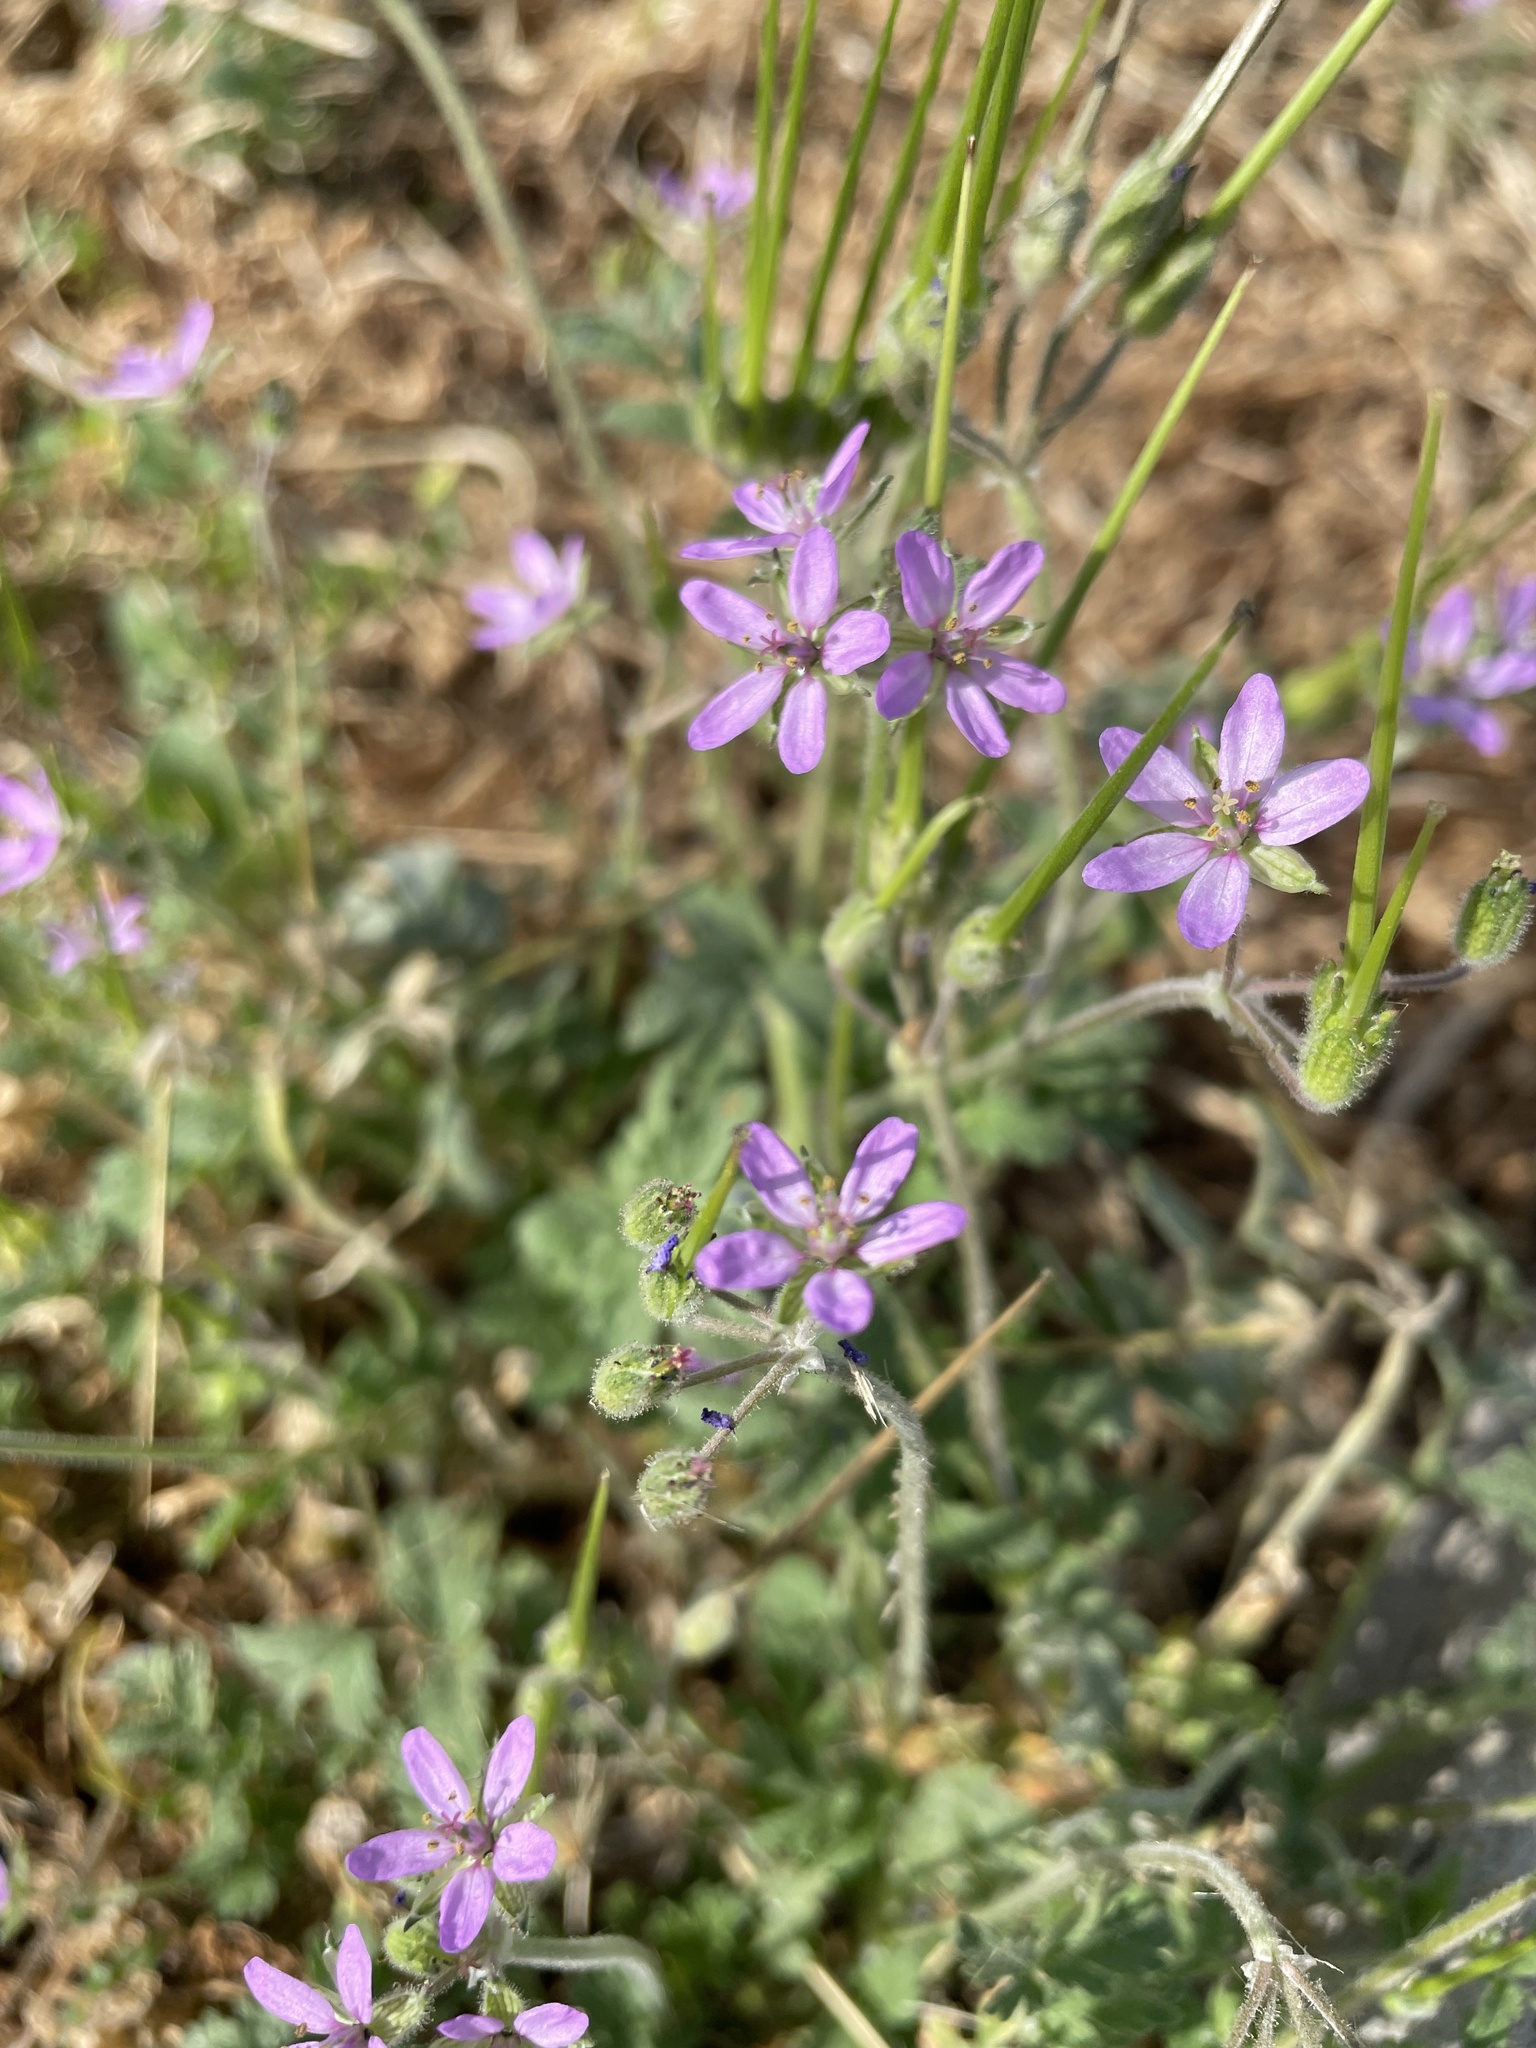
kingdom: Plantae
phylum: Tracheophyta
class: Magnoliopsida
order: Geraniales
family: Geraniaceae
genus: Erodium
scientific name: Erodium moschatum
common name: Musk stork's-bill
